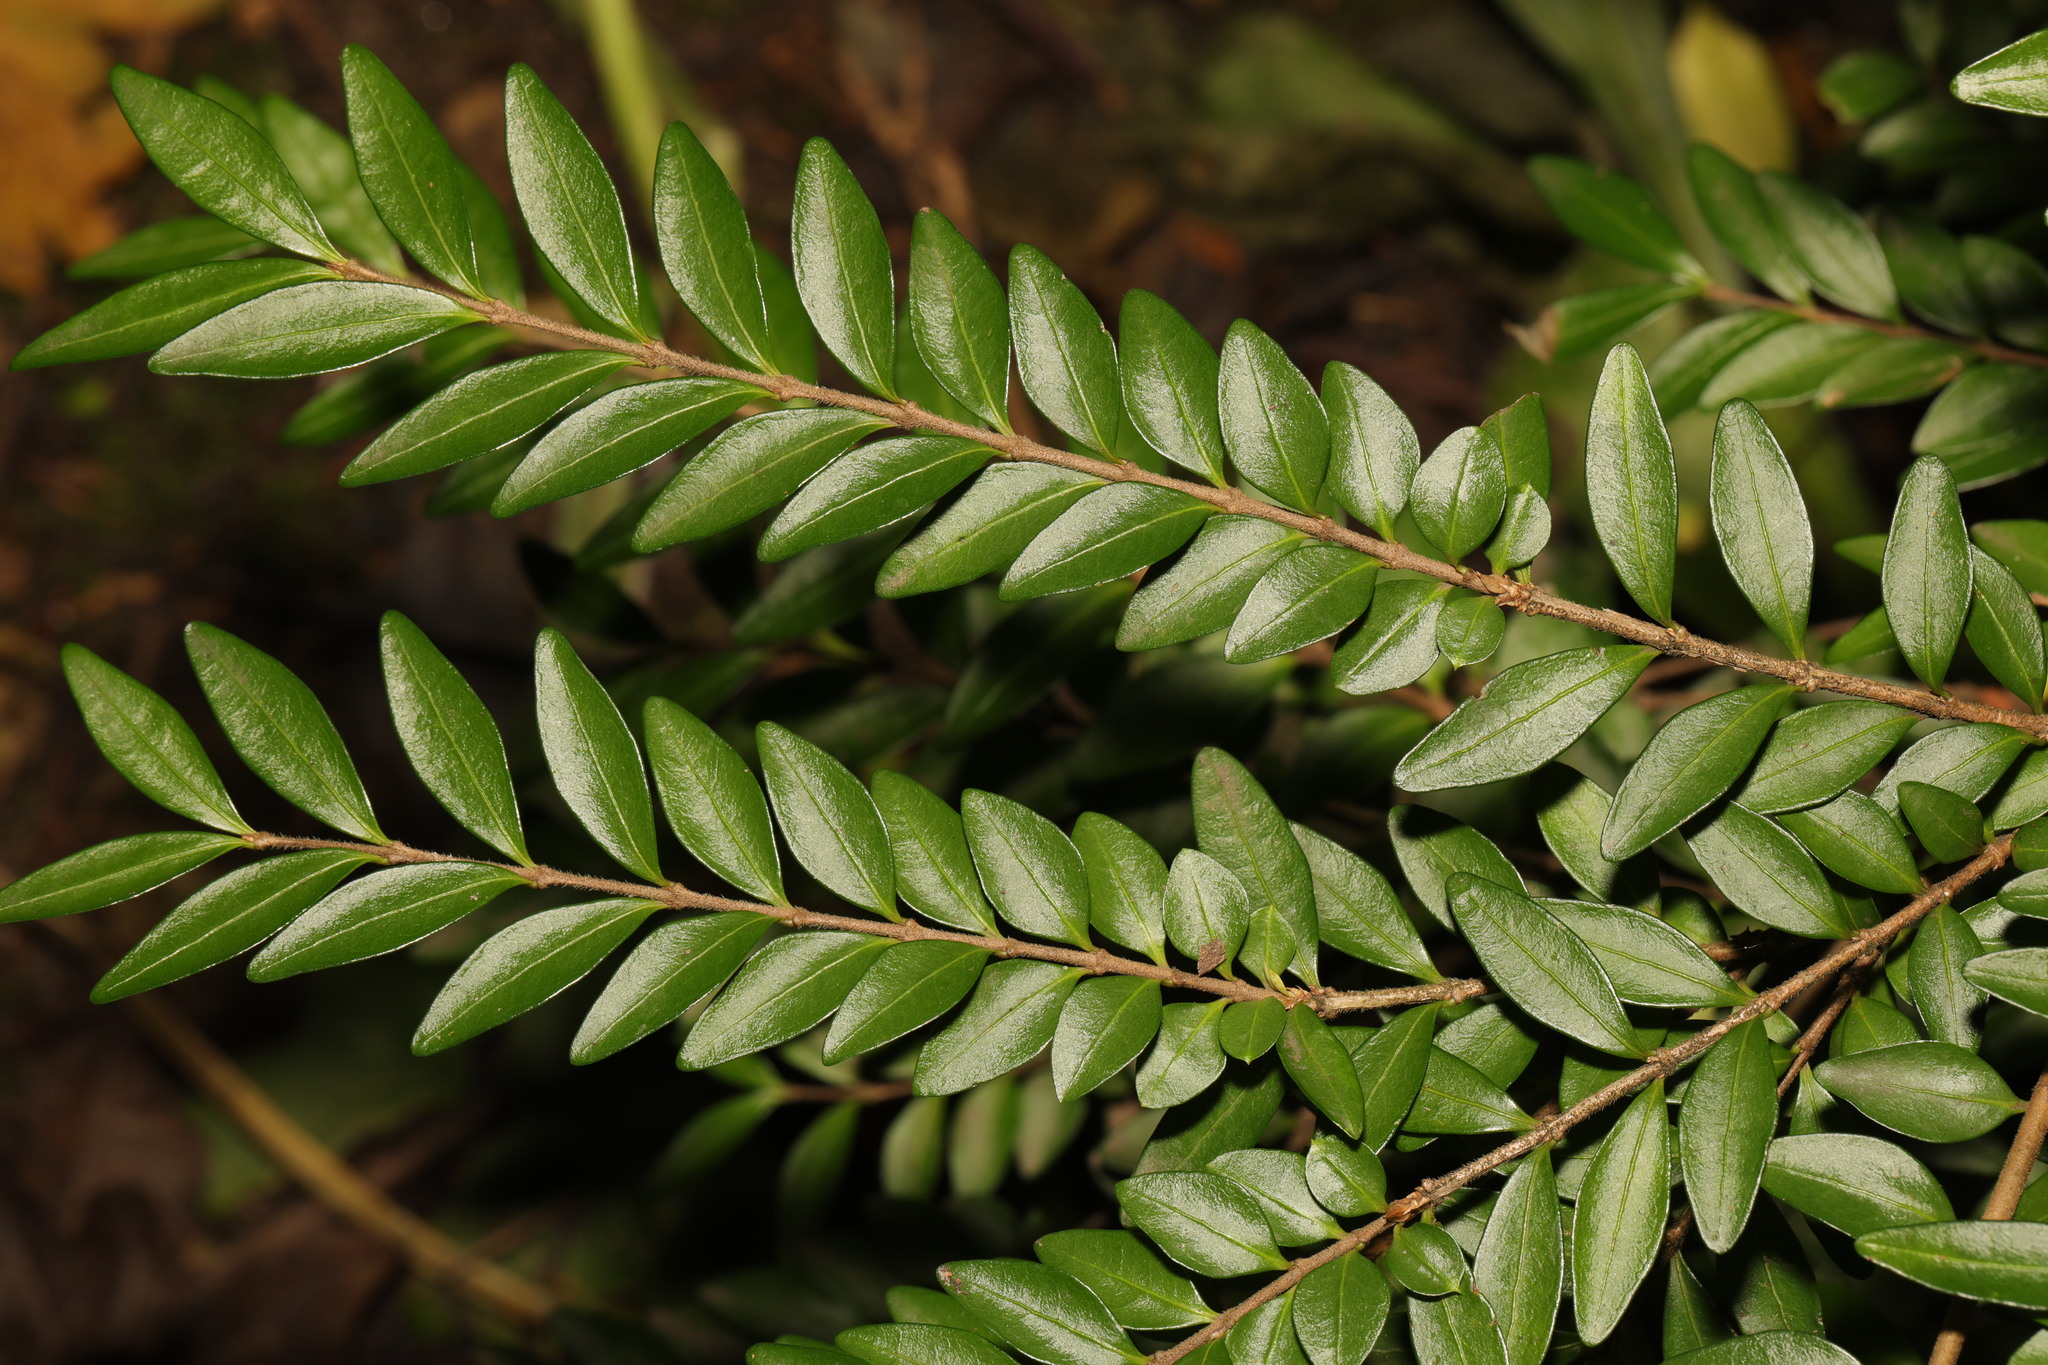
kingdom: Plantae
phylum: Tracheophyta
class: Magnoliopsida
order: Dipsacales
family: Caprifoliaceae
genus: Lonicera
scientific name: Lonicera pileata
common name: Box-leaved honeysuckle
